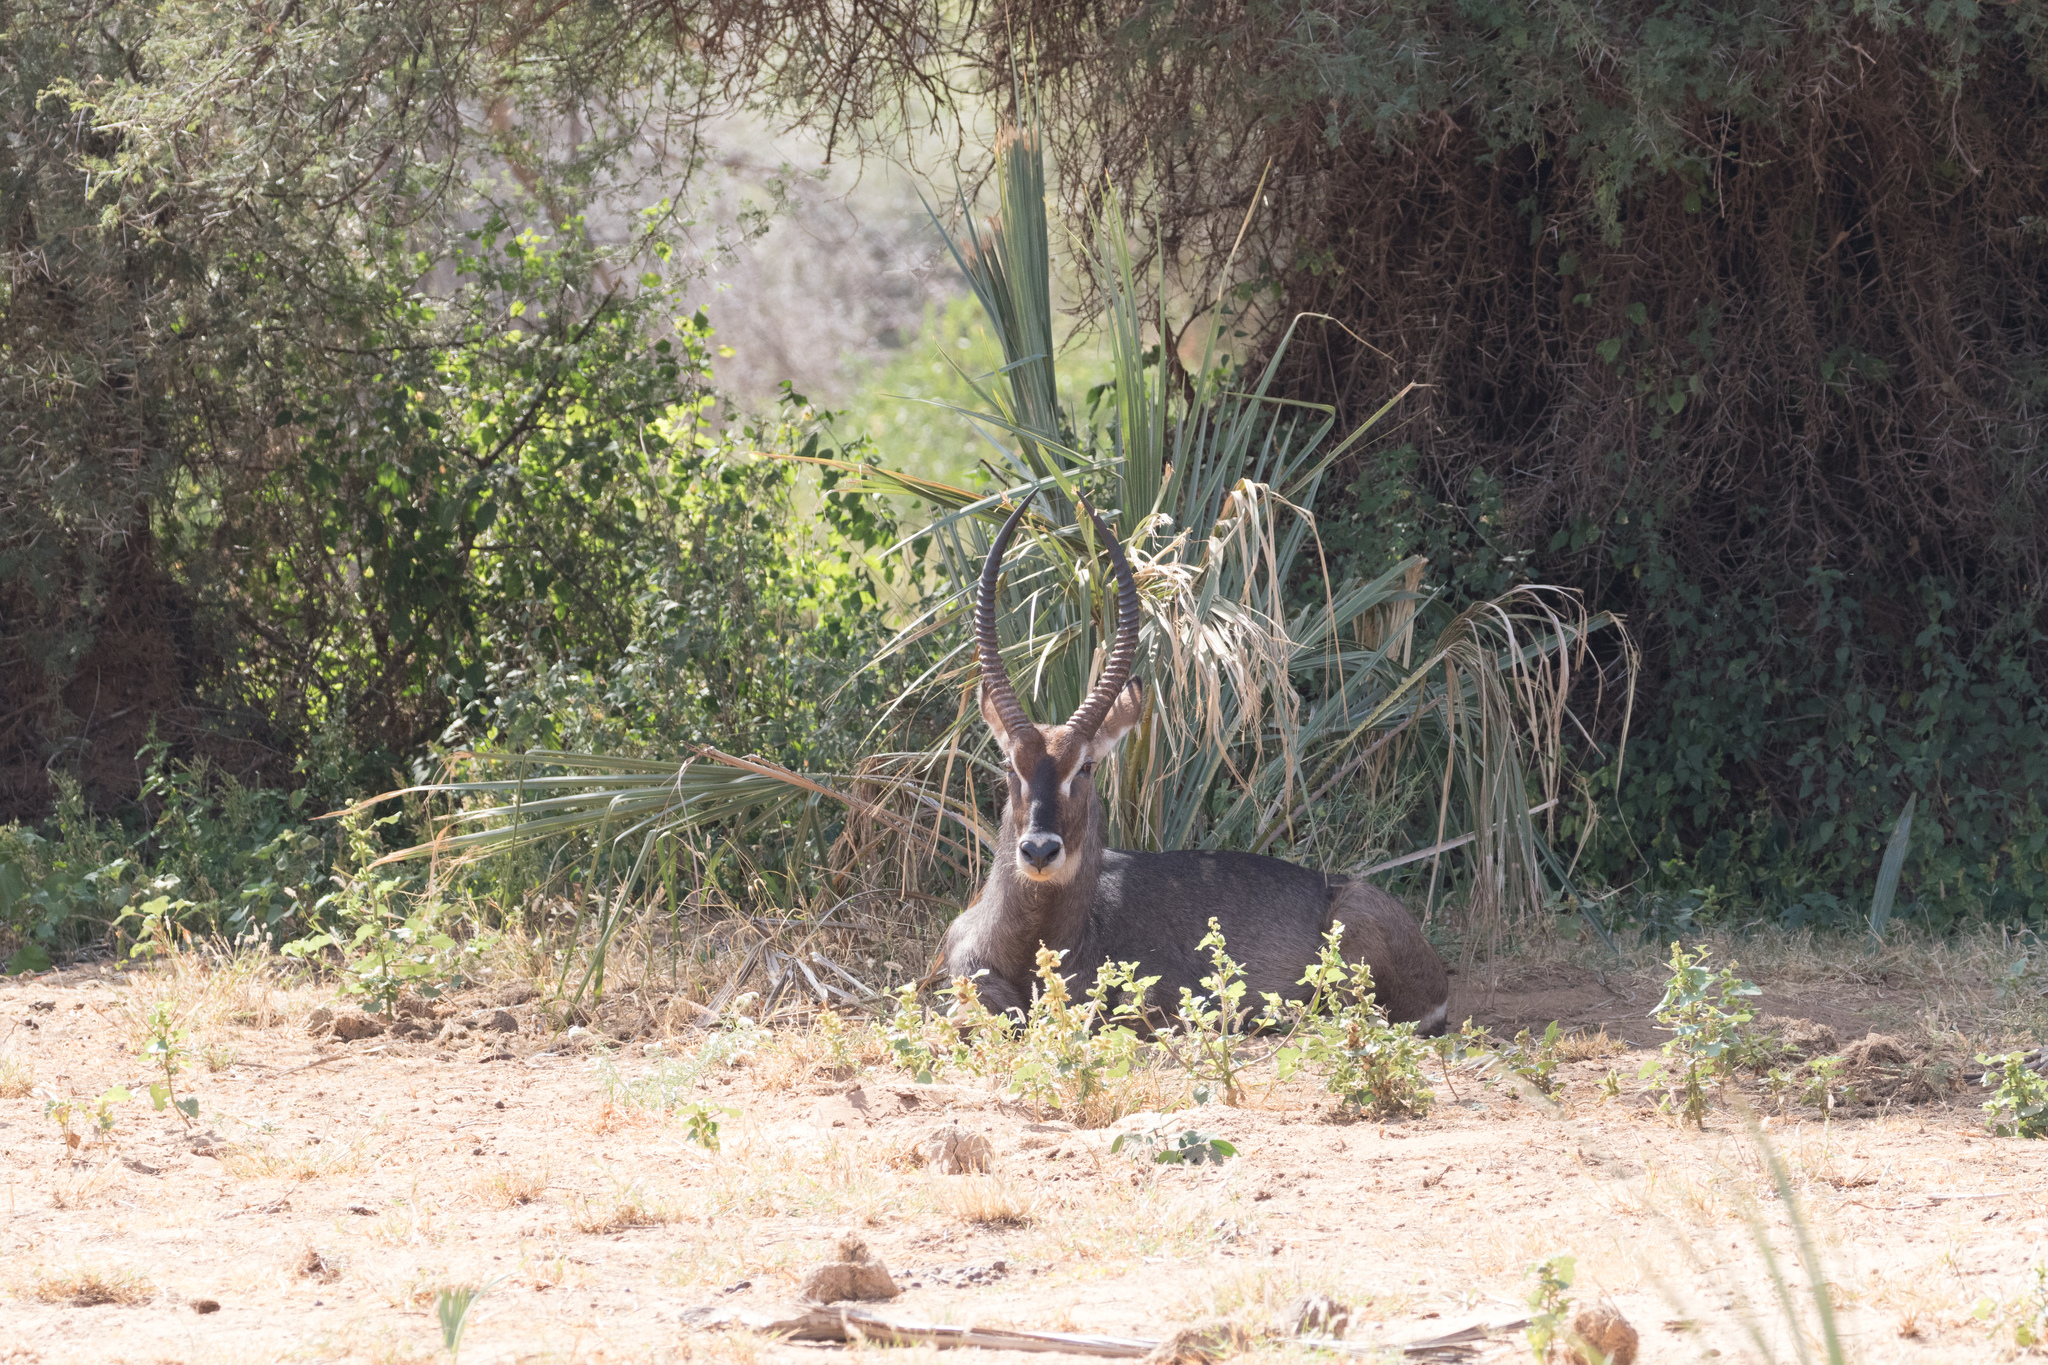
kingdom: Animalia
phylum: Chordata
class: Mammalia
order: Artiodactyla
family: Bovidae
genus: Kobus
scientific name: Kobus ellipsiprymnus
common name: Waterbuck
